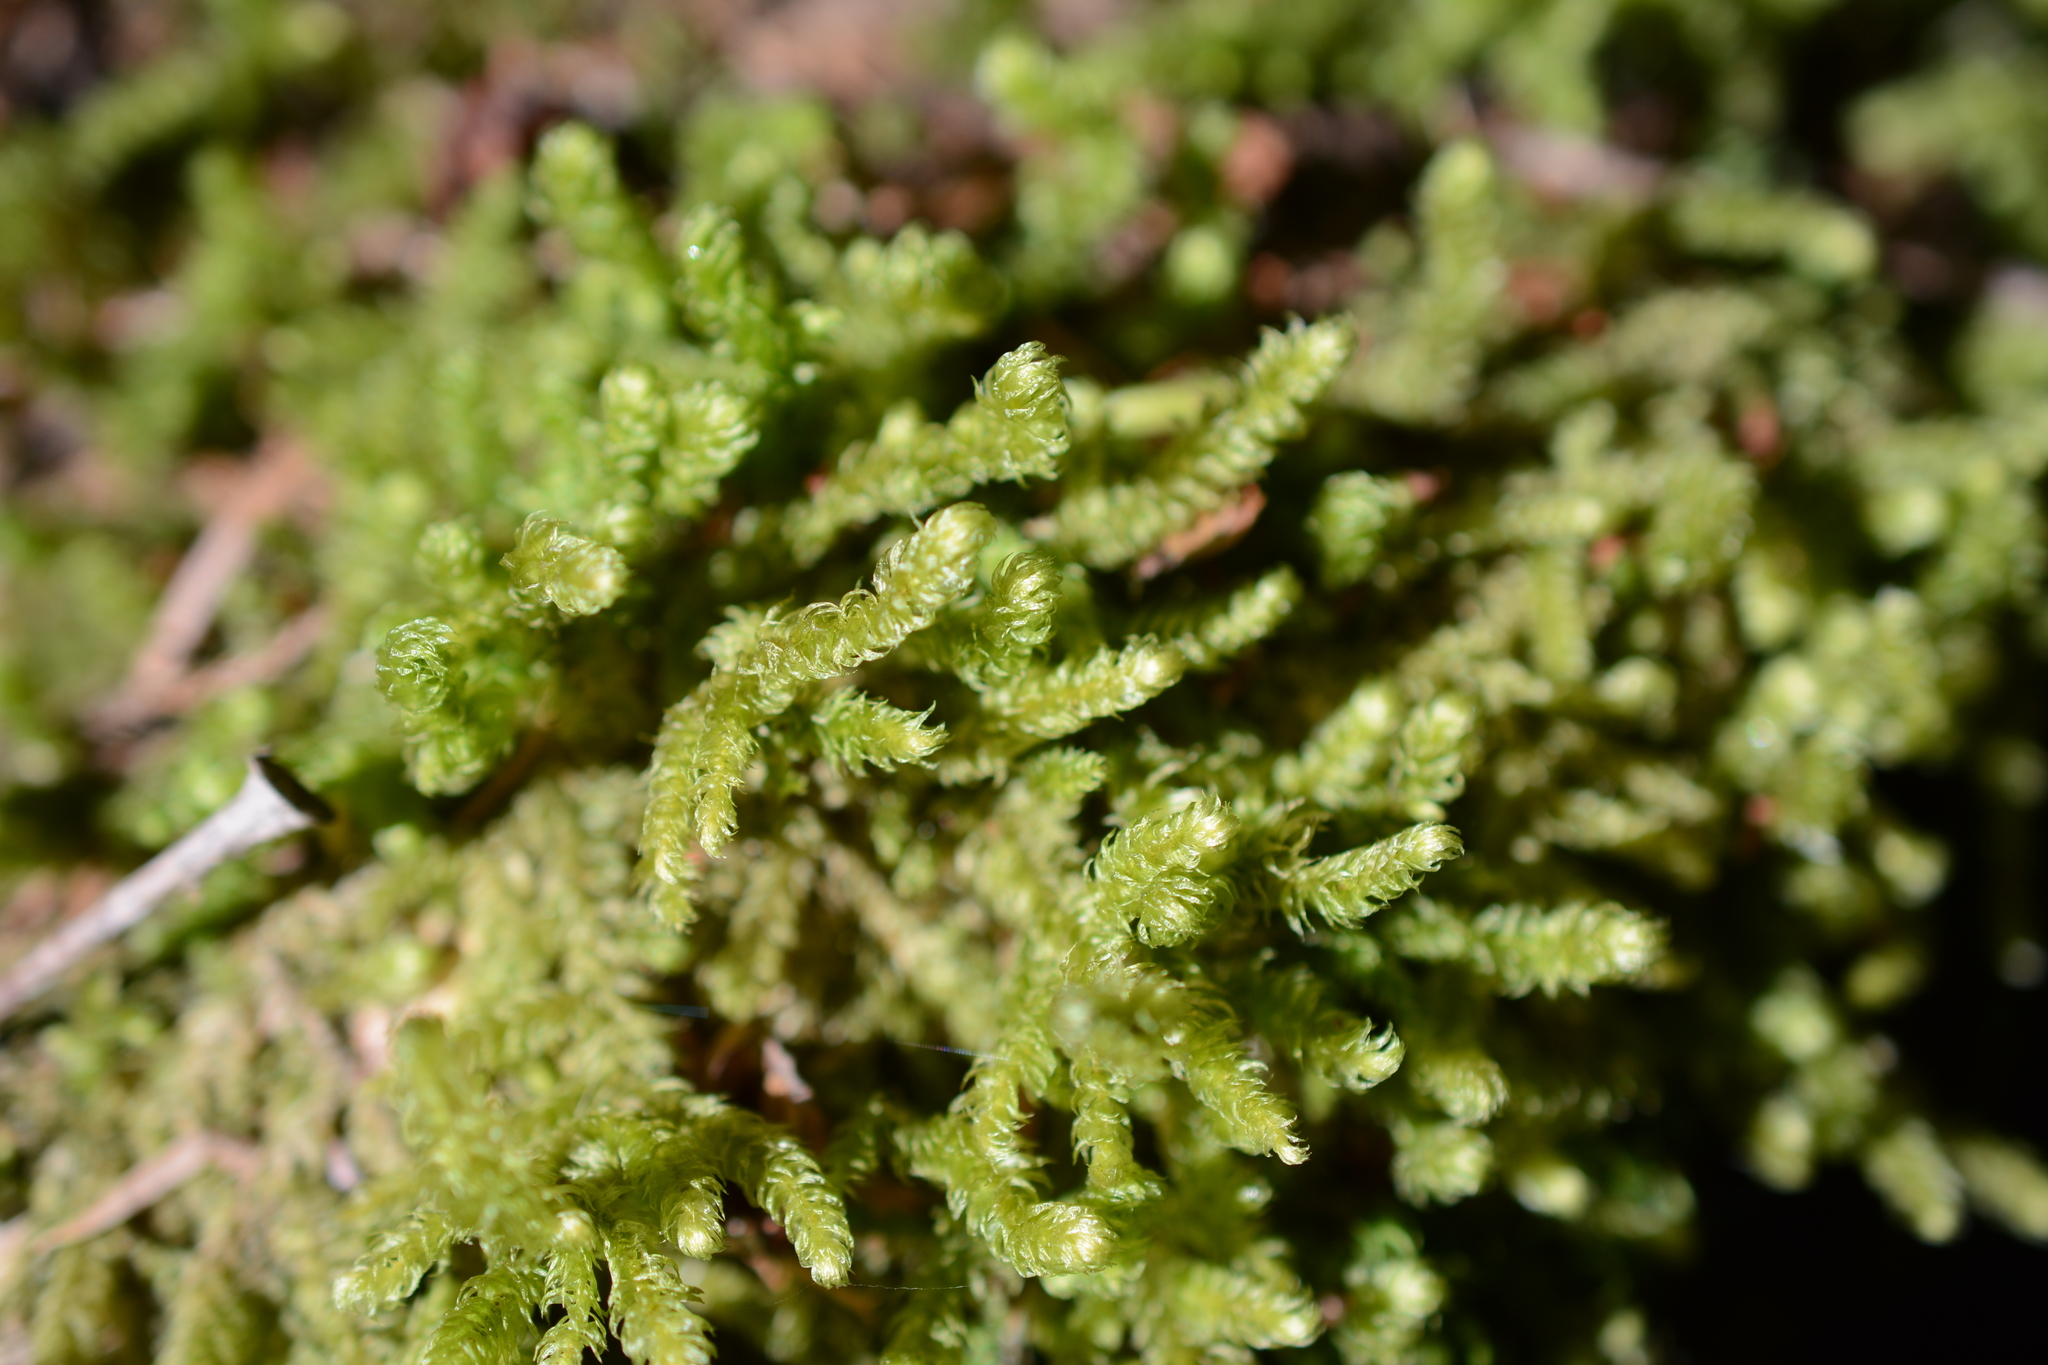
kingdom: Plantae
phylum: Bryophyta
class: Bryopsida
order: Hypnales
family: Hylocomiaceae
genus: Rhytidiopsis
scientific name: Rhytidiopsis robusta
